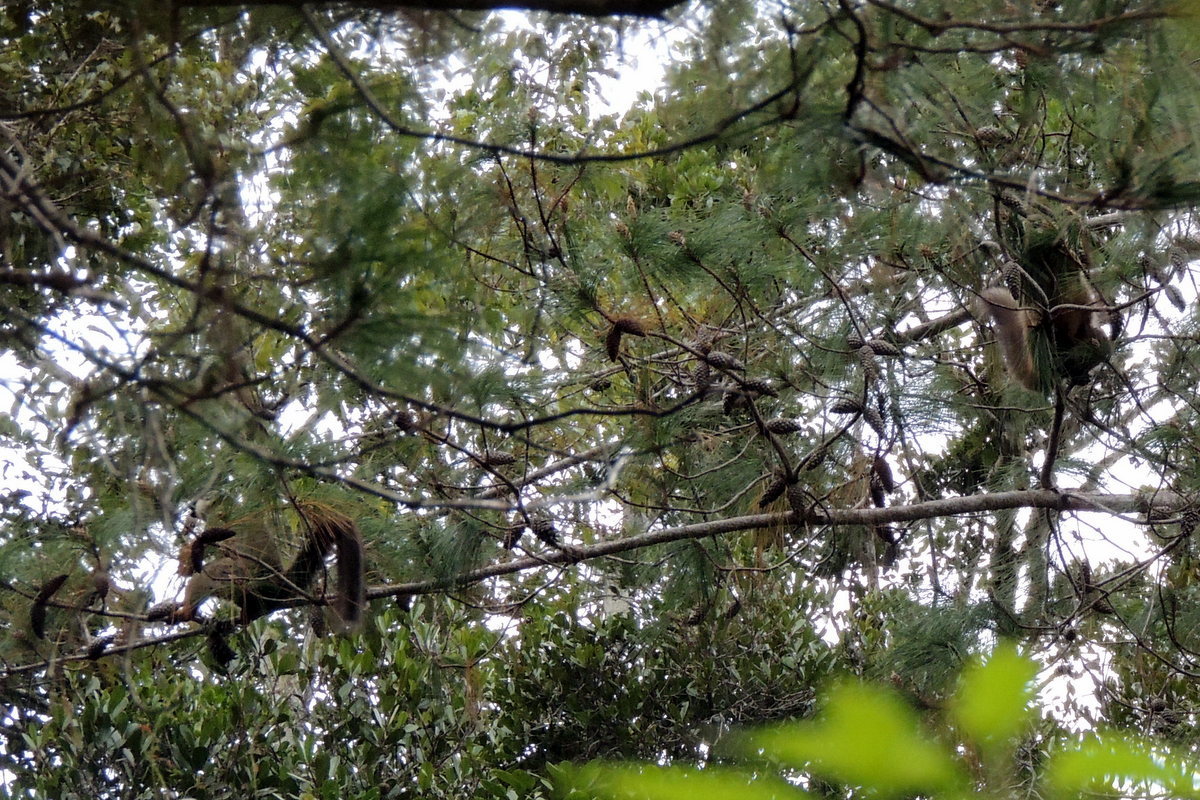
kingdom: Animalia
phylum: Chordata
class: Mammalia
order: Primates
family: Lemuridae
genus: Eulemur
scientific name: Eulemur fulvus
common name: Brown lemur
